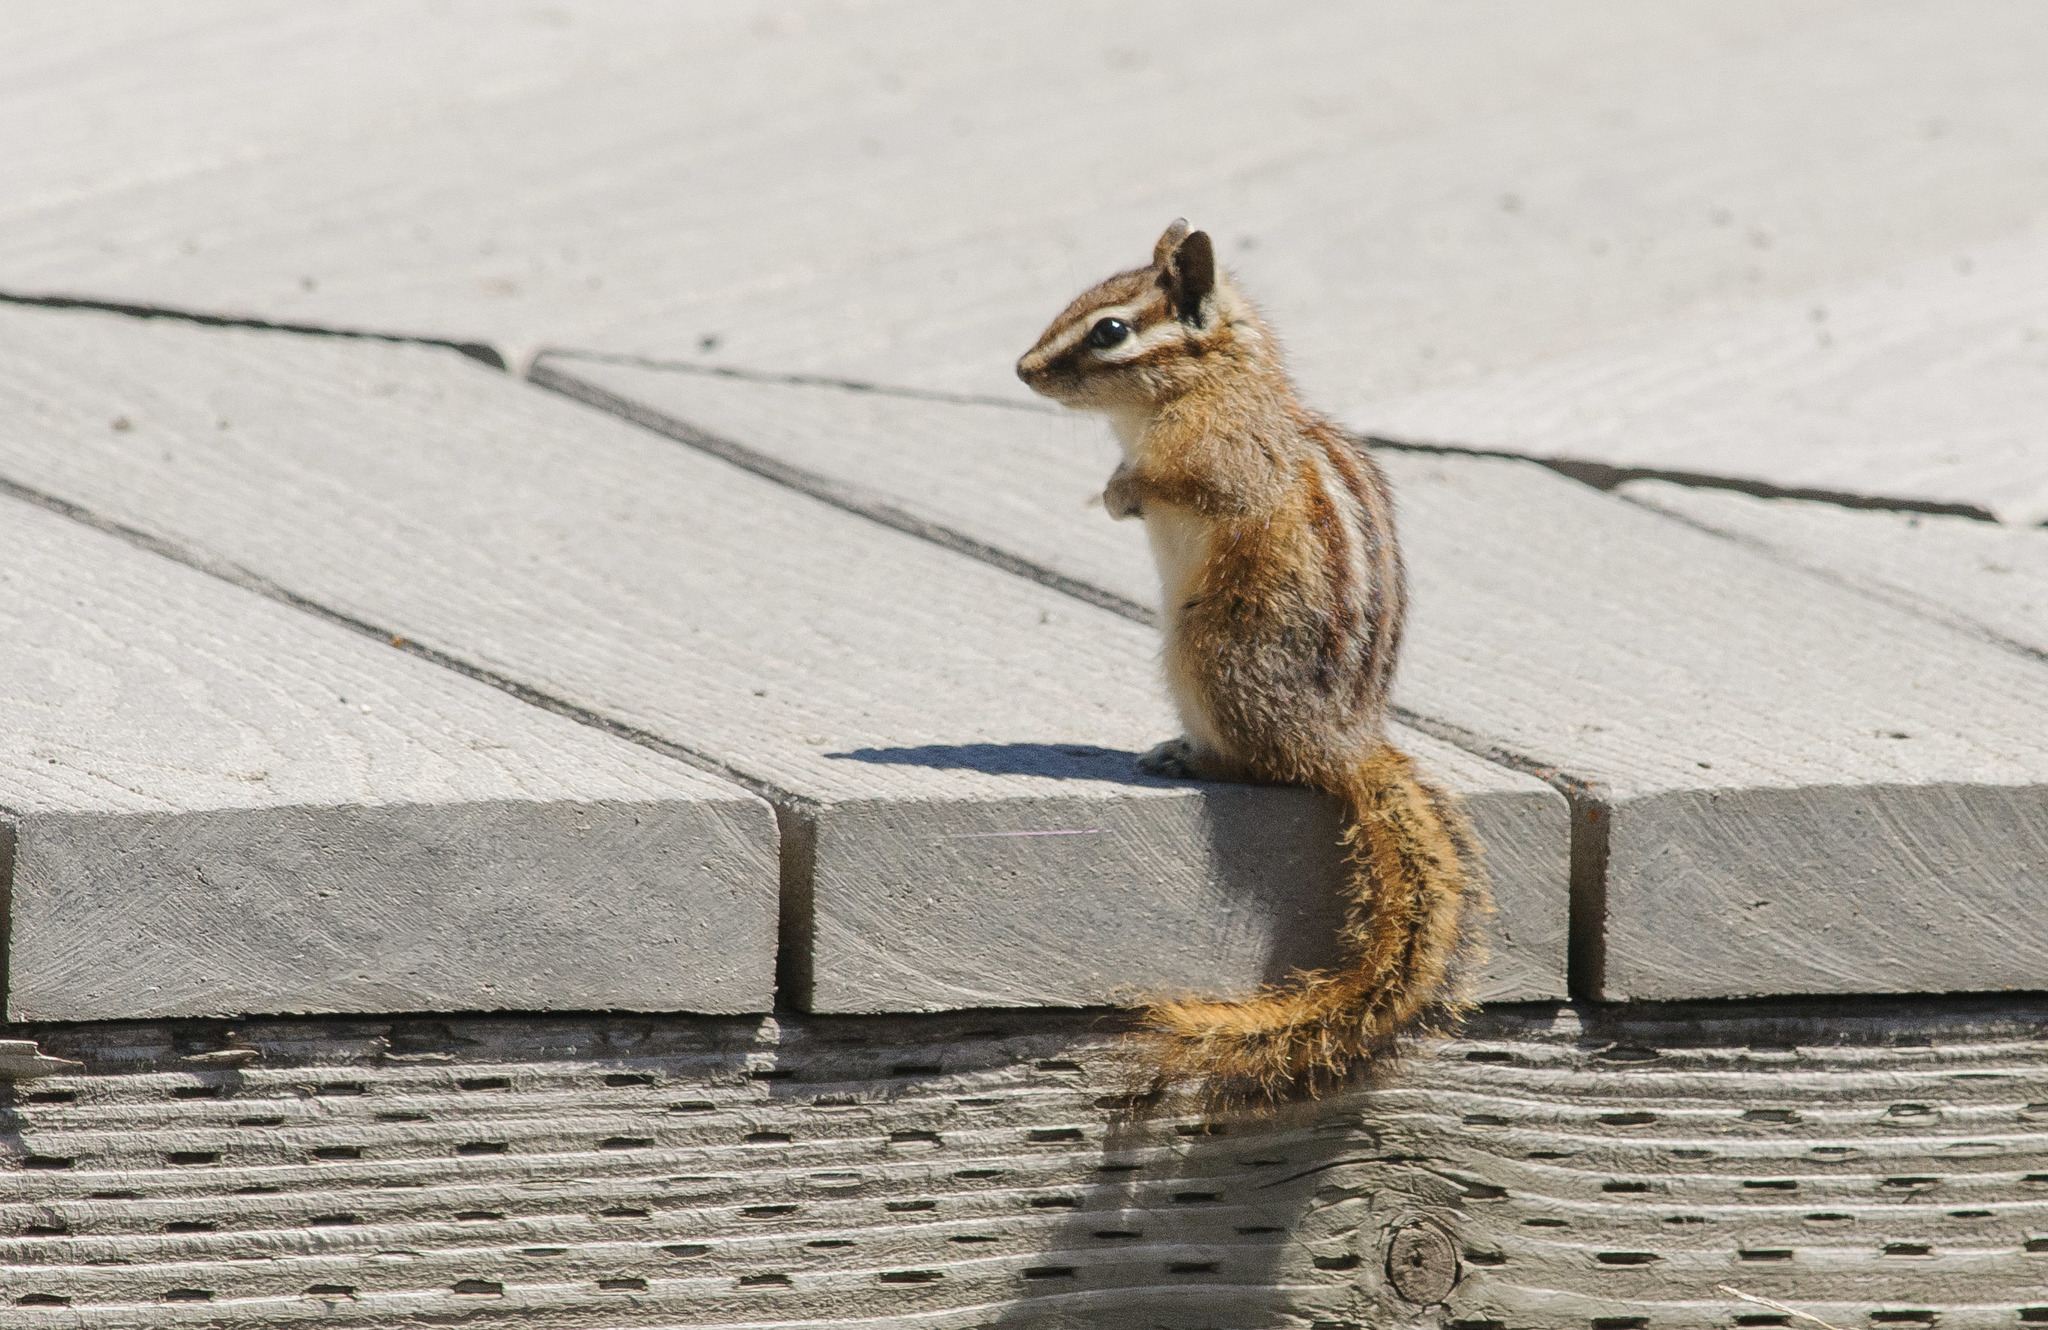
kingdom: Animalia
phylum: Chordata
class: Mammalia
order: Rodentia
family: Sciuridae
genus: Tamias
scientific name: Tamias minimus
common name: Least chipmunk
